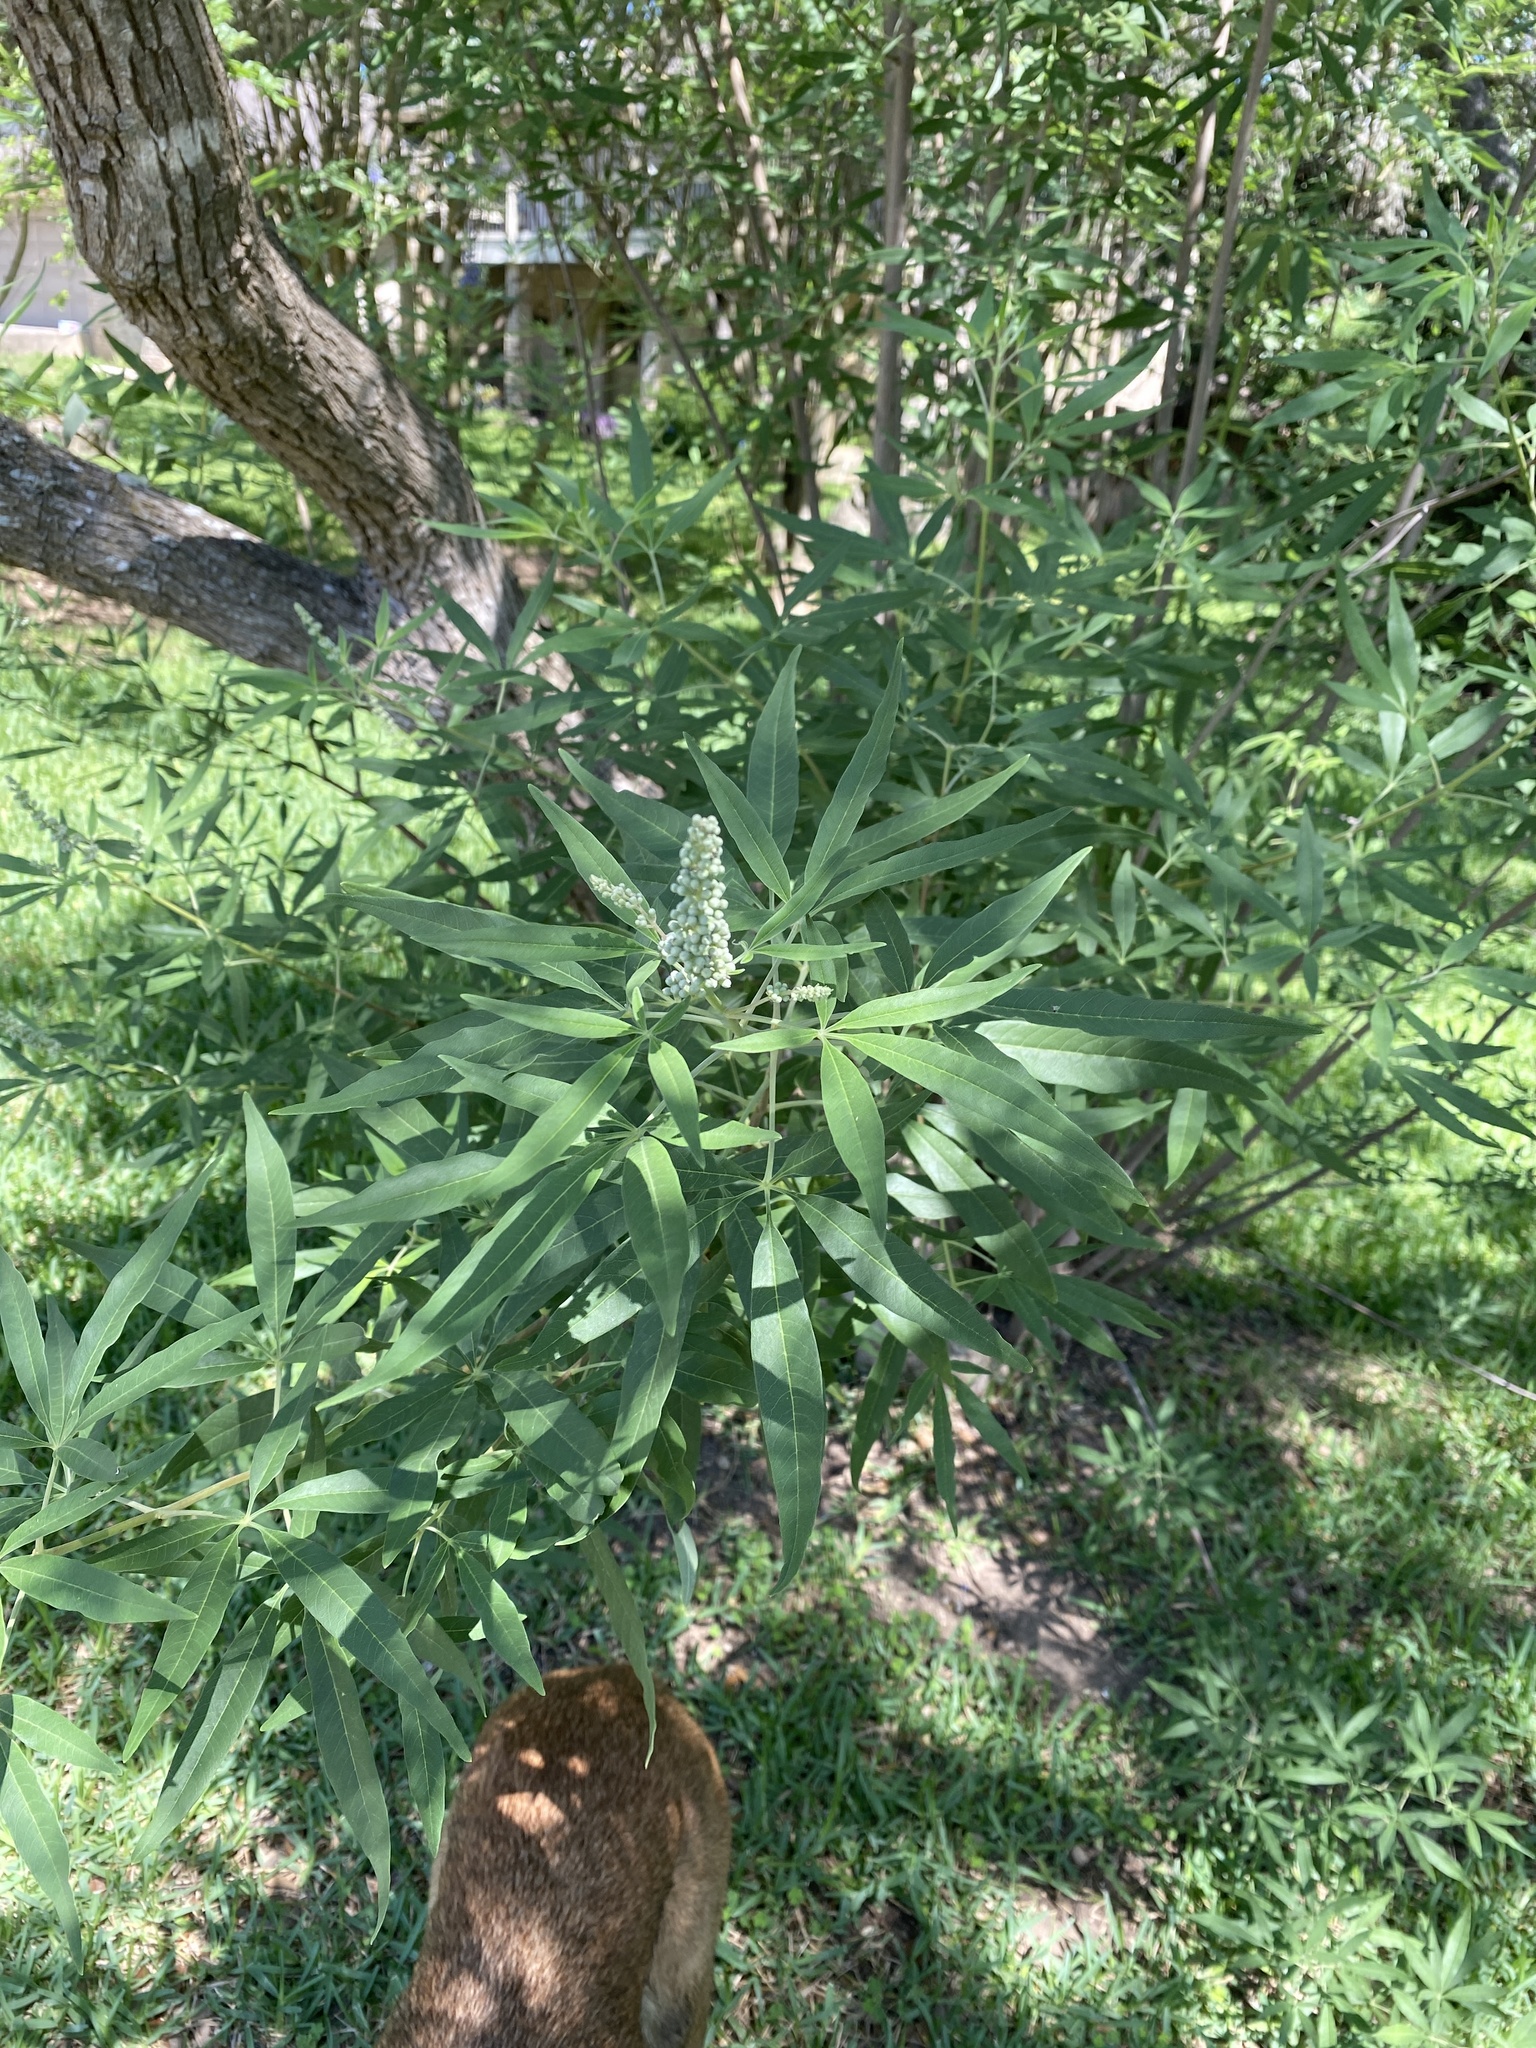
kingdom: Plantae
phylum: Tracheophyta
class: Magnoliopsida
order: Lamiales
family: Lamiaceae
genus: Vitex
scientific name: Vitex agnus-castus
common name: Chasteberry
